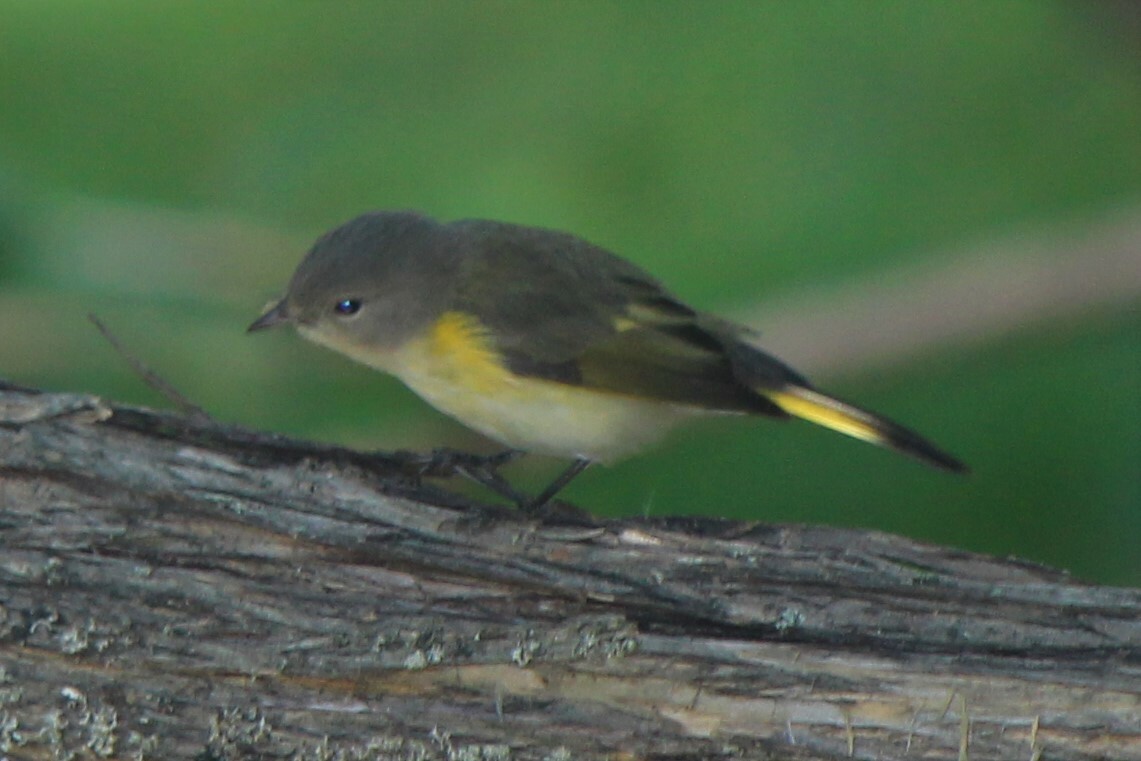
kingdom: Animalia
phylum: Chordata
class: Aves
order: Passeriformes
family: Parulidae
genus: Setophaga
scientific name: Setophaga ruticilla
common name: American redstart
